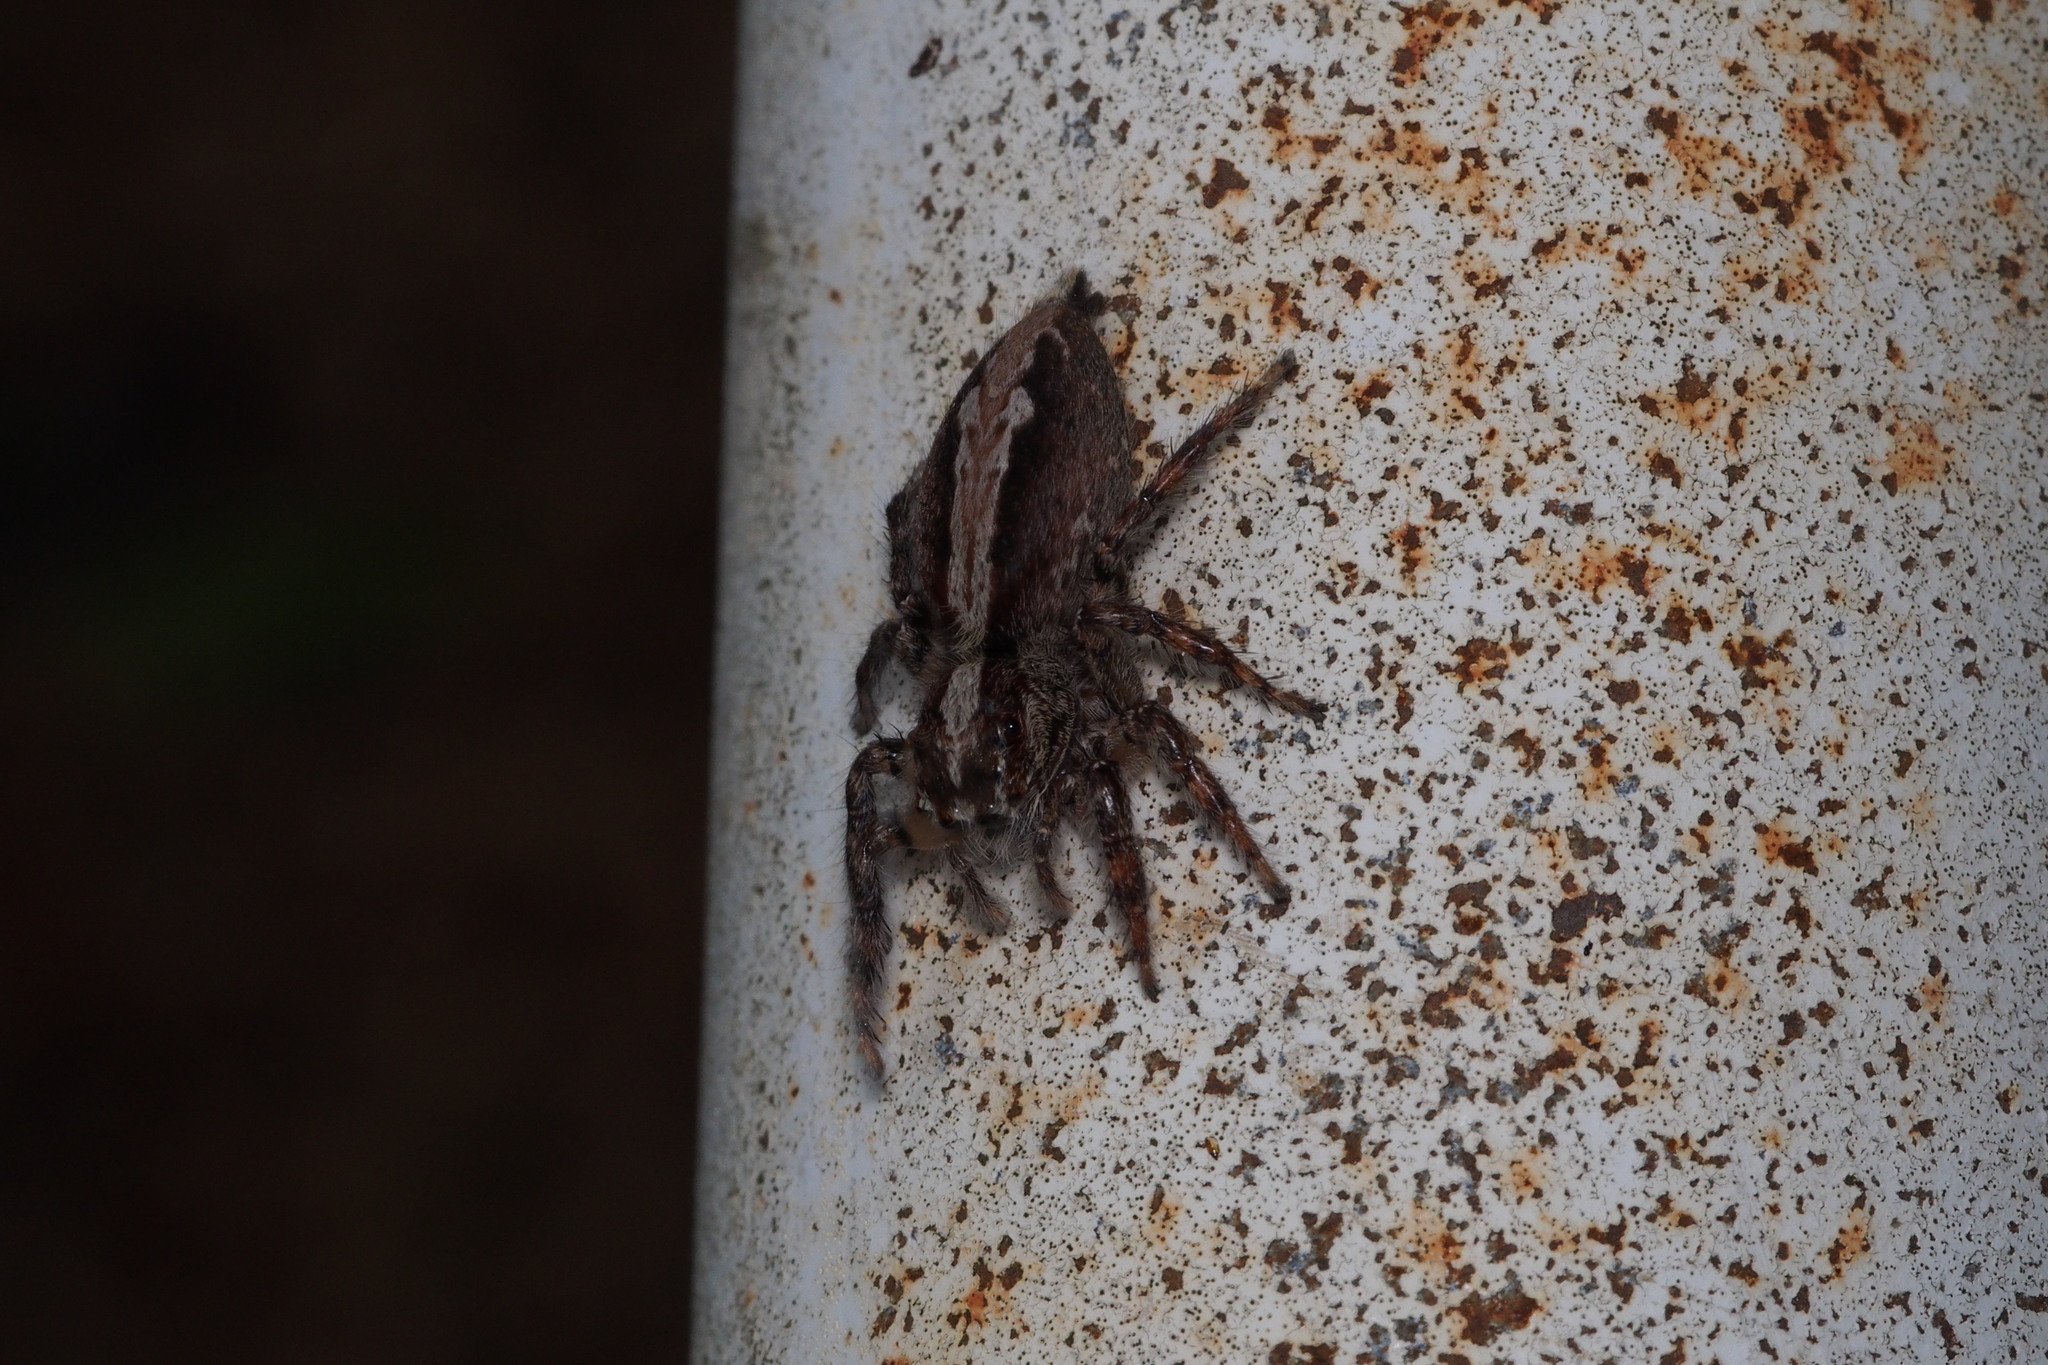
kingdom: Animalia
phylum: Arthropoda
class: Arachnida
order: Araneae
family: Salticidae
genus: Pancorius
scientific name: Pancorius crassipes
